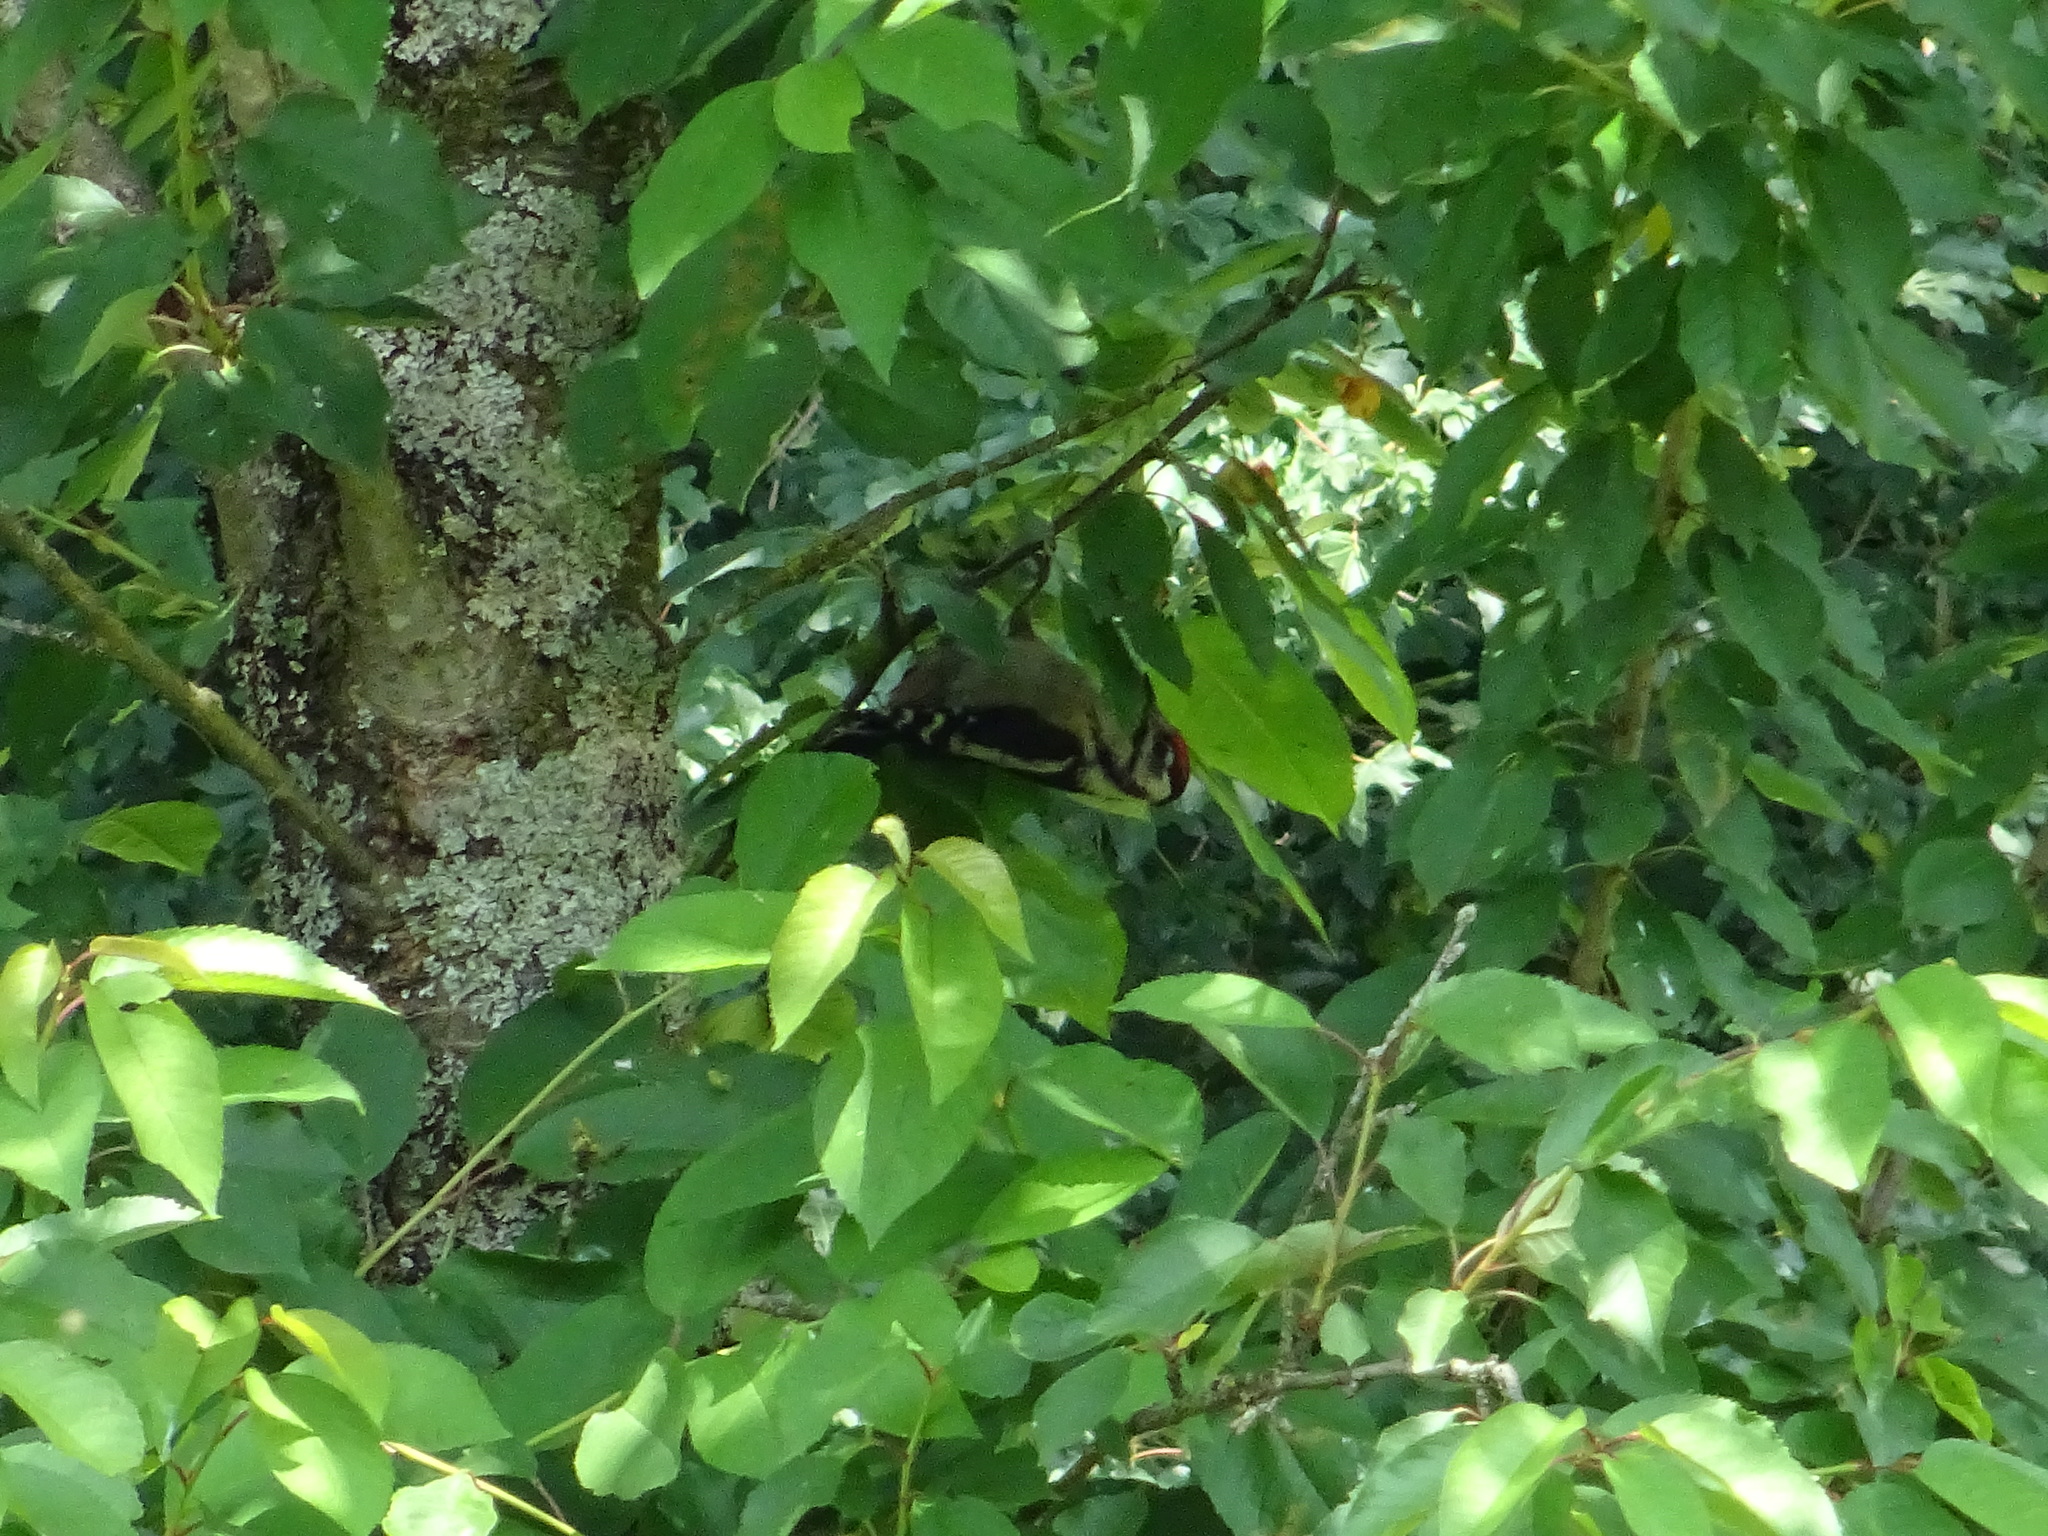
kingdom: Animalia
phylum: Chordata
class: Aves
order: Piciformes
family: Picidae
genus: Dendrocopos
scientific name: Dendrocopos major
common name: Great spotted woodpecker
